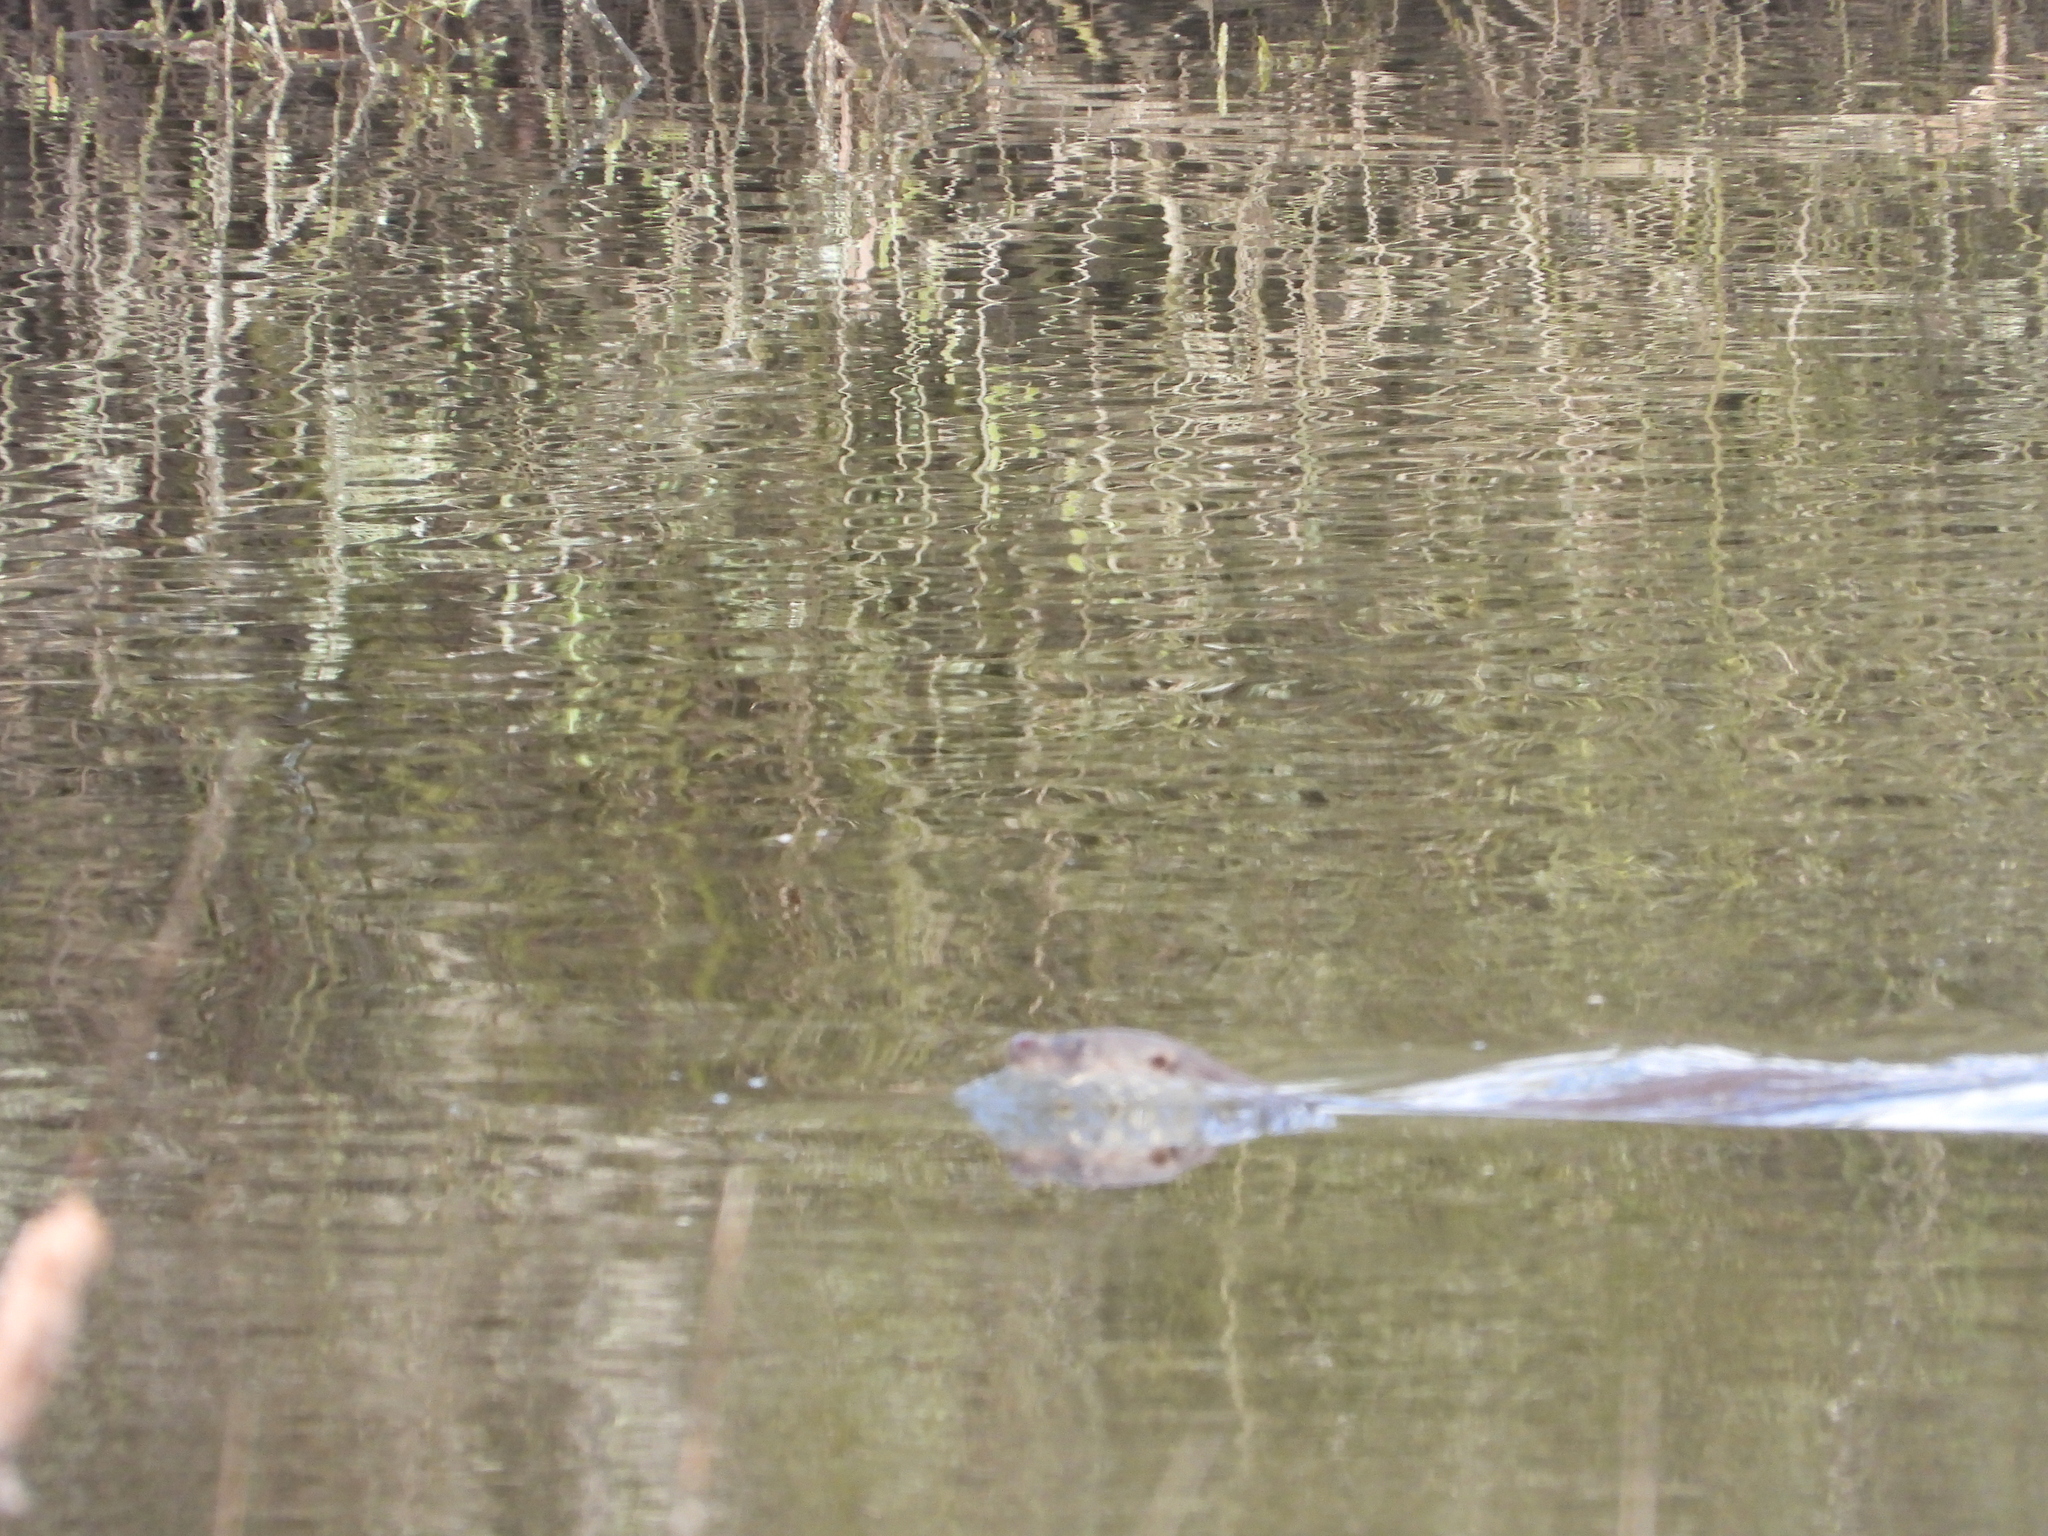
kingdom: Animalia
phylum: Chordata
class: Mammalia
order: Carnivora
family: Mustelidae
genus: Lutra
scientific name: Lutra lutra
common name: European otter
